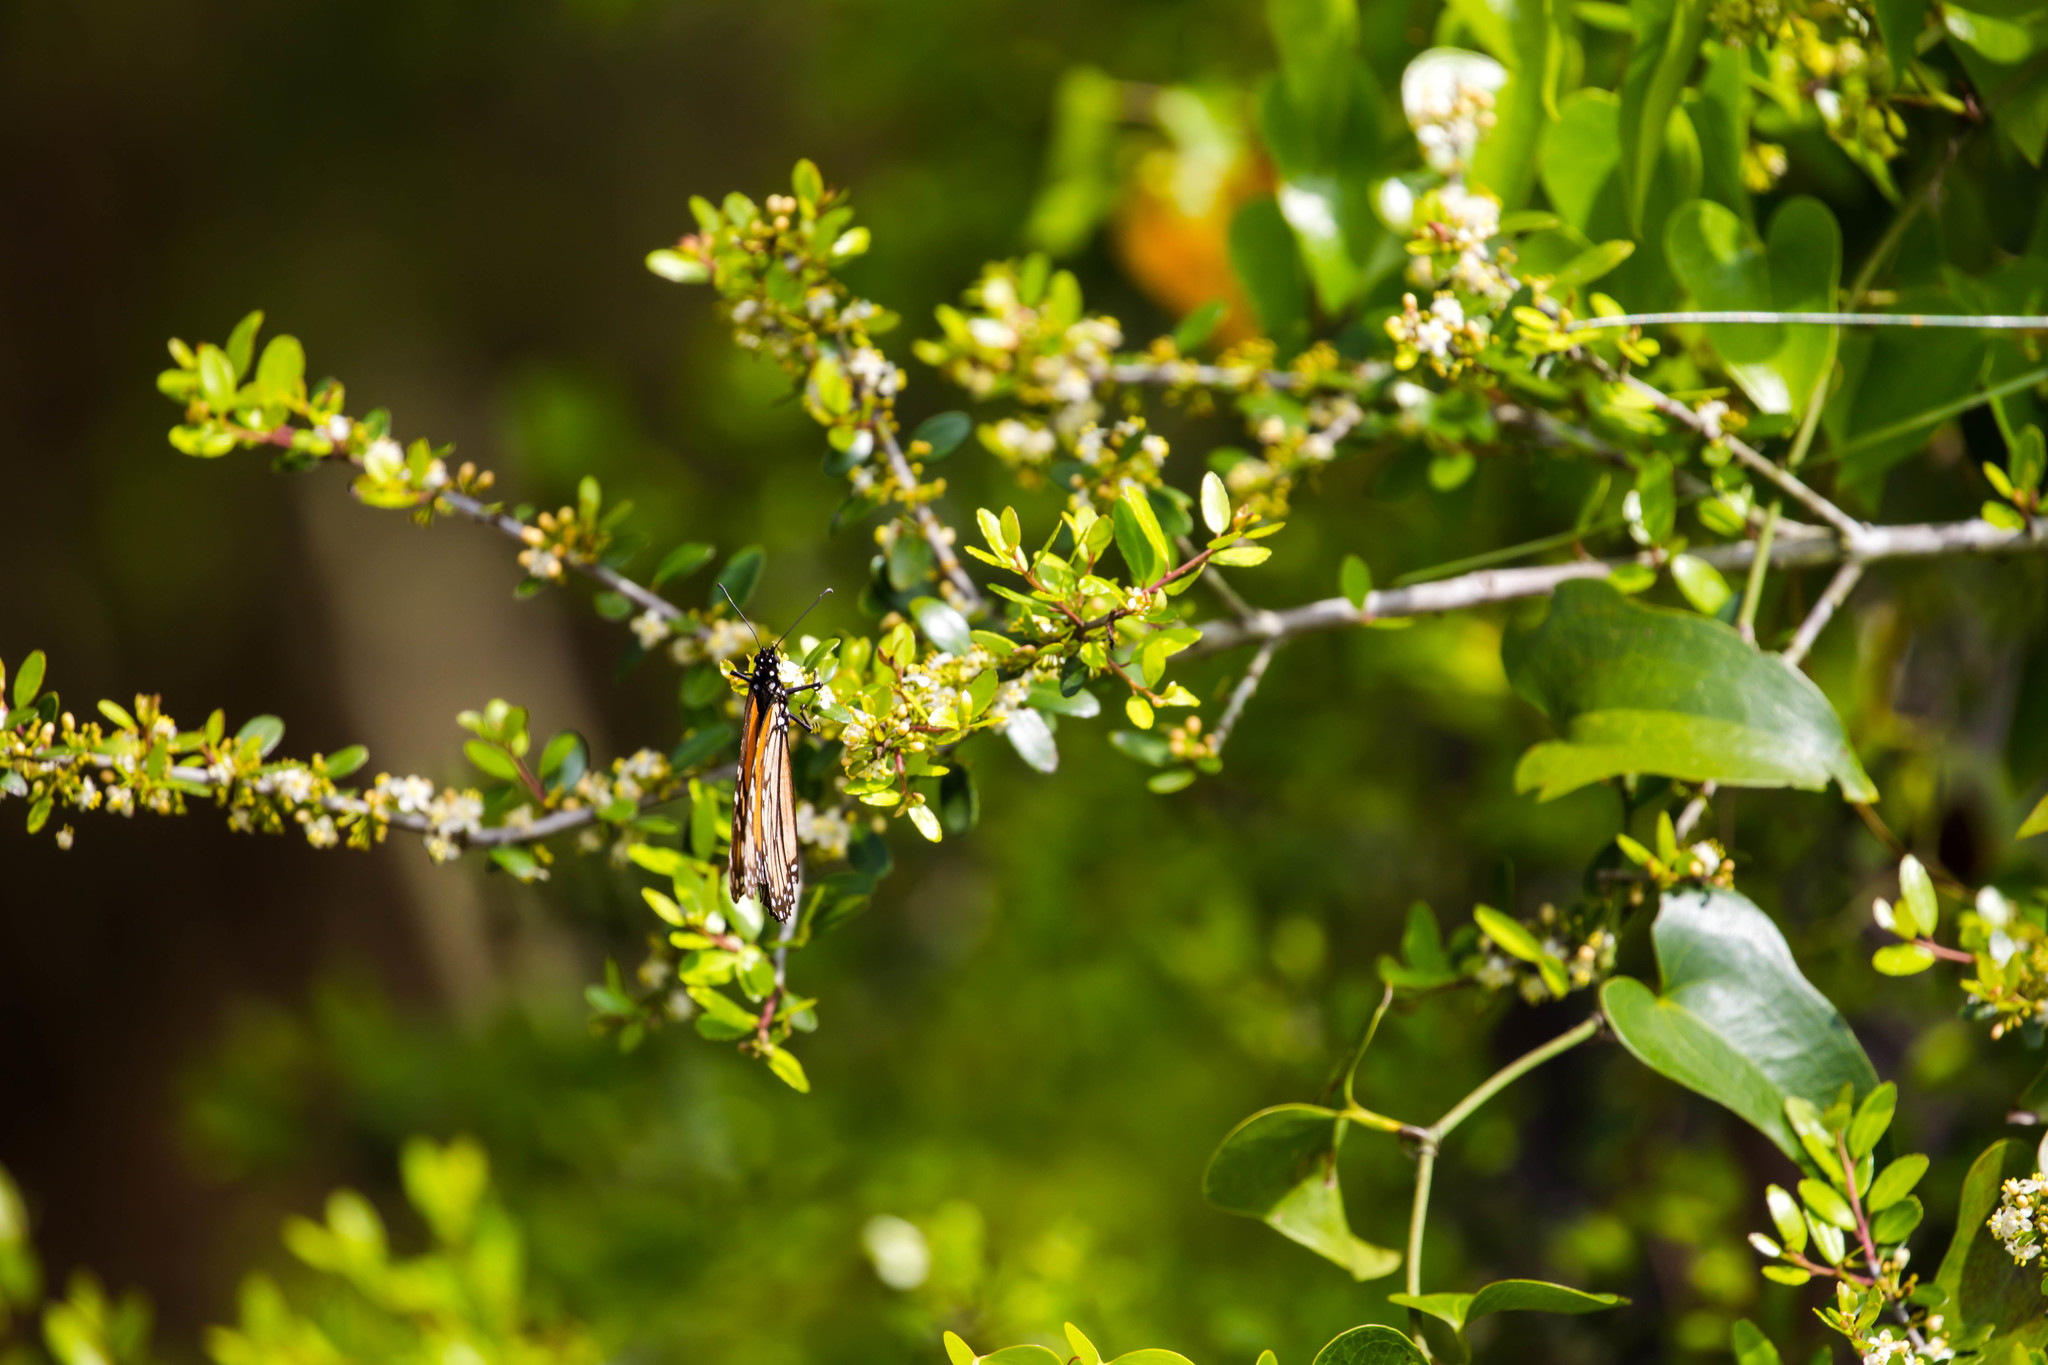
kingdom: Animalia
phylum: Arthropoda
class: Insecta
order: Lepidoptera
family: Nymphalidae
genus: Danaus
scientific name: Danaus plexippus
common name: Monarch
